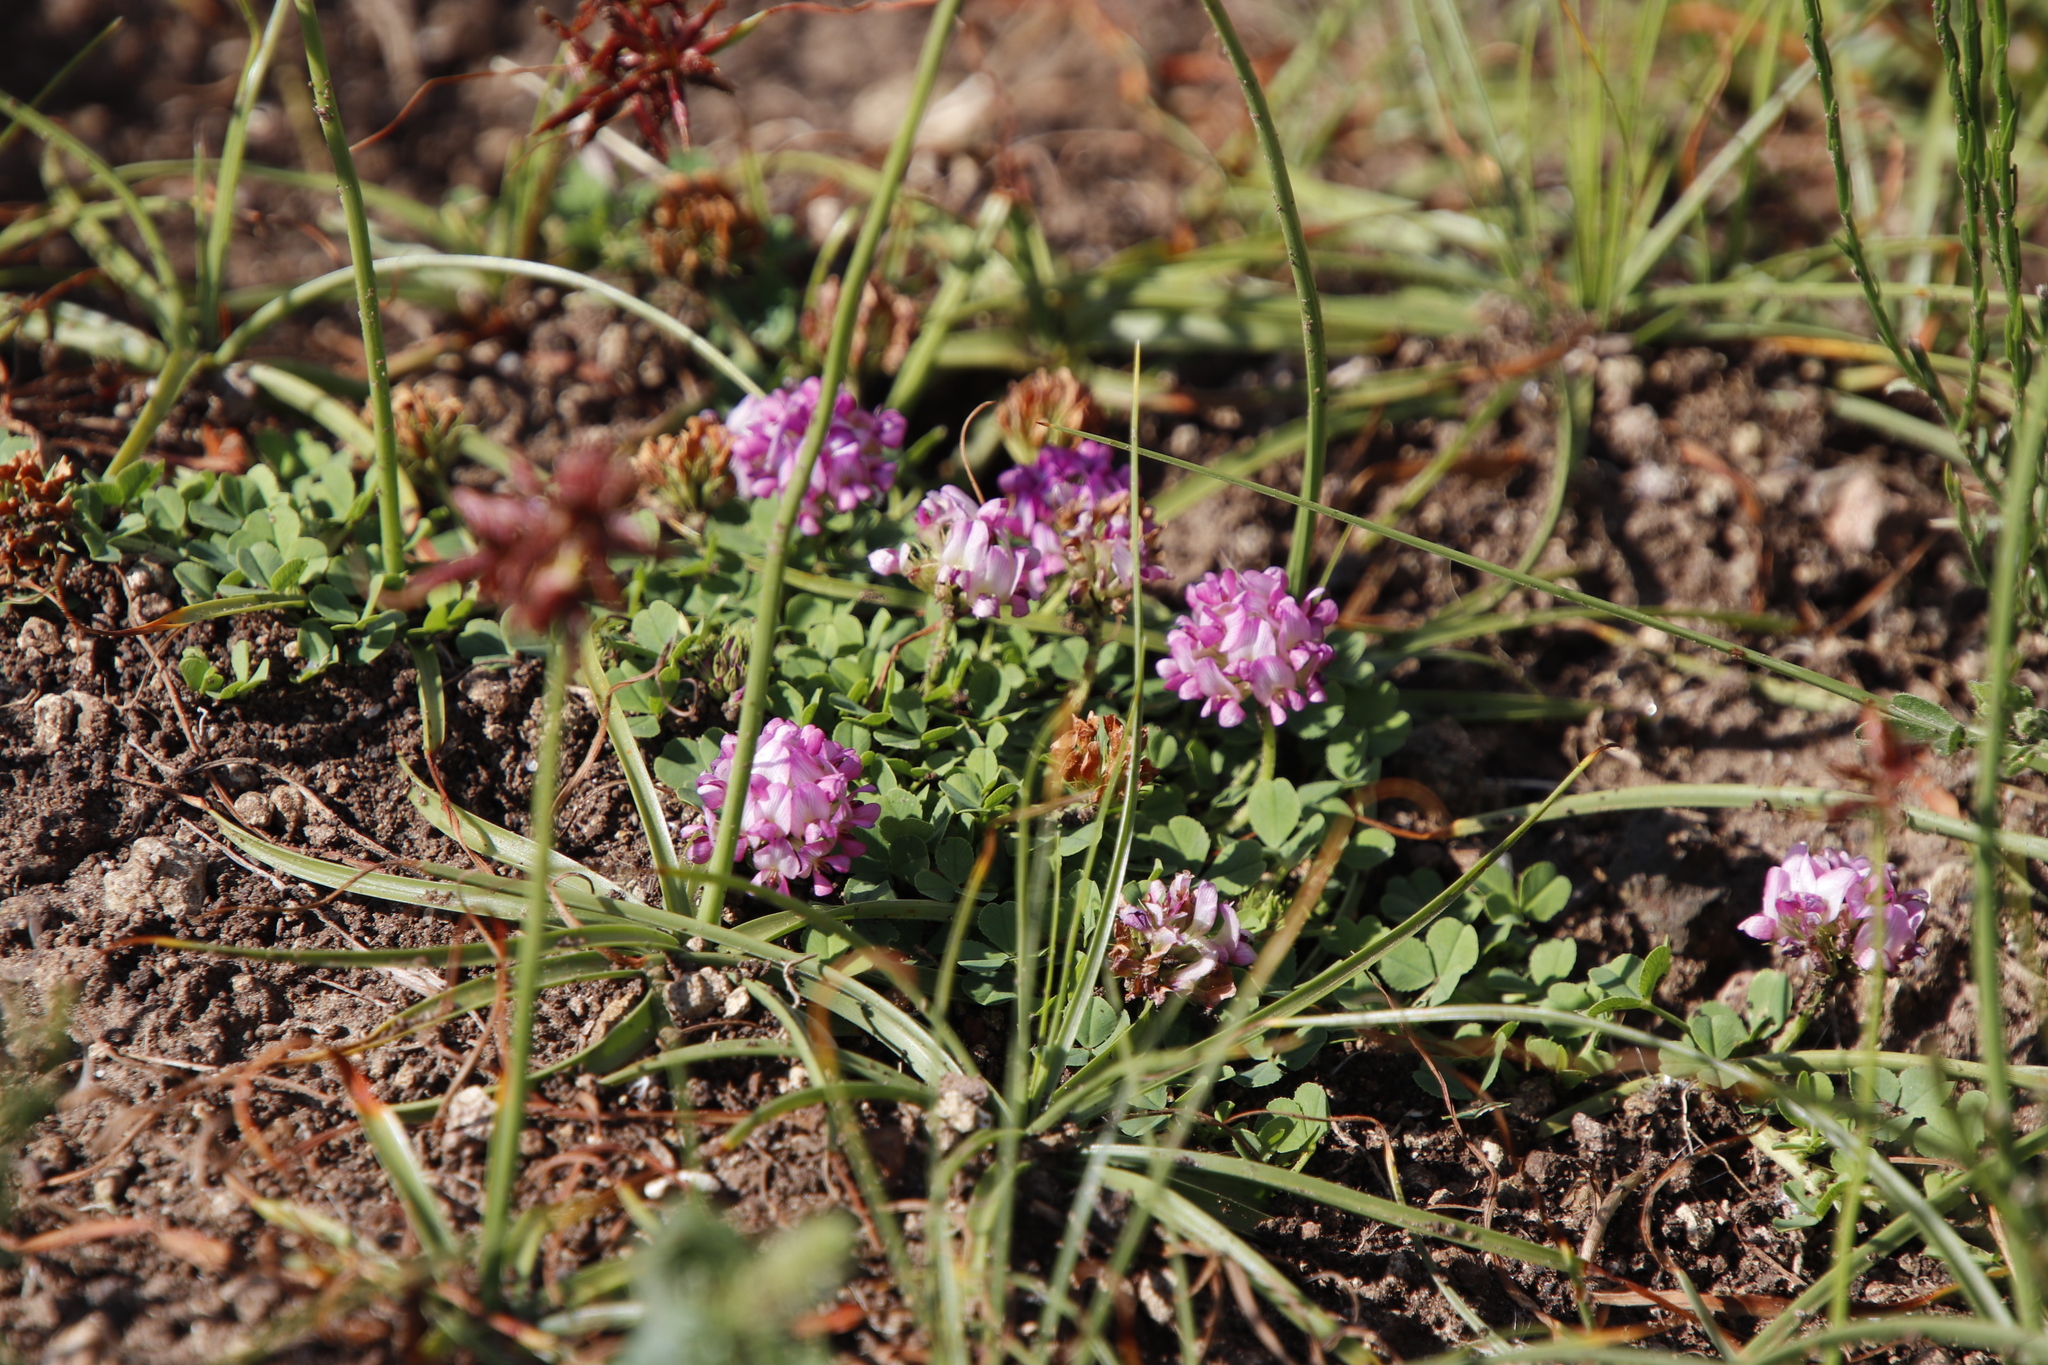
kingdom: Plantae
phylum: Tracheophyta
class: Magnoliopsida
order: Fabales
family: Fabaceae
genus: Trifolium
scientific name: Trifolium burchellianum
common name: Burchell's clover
